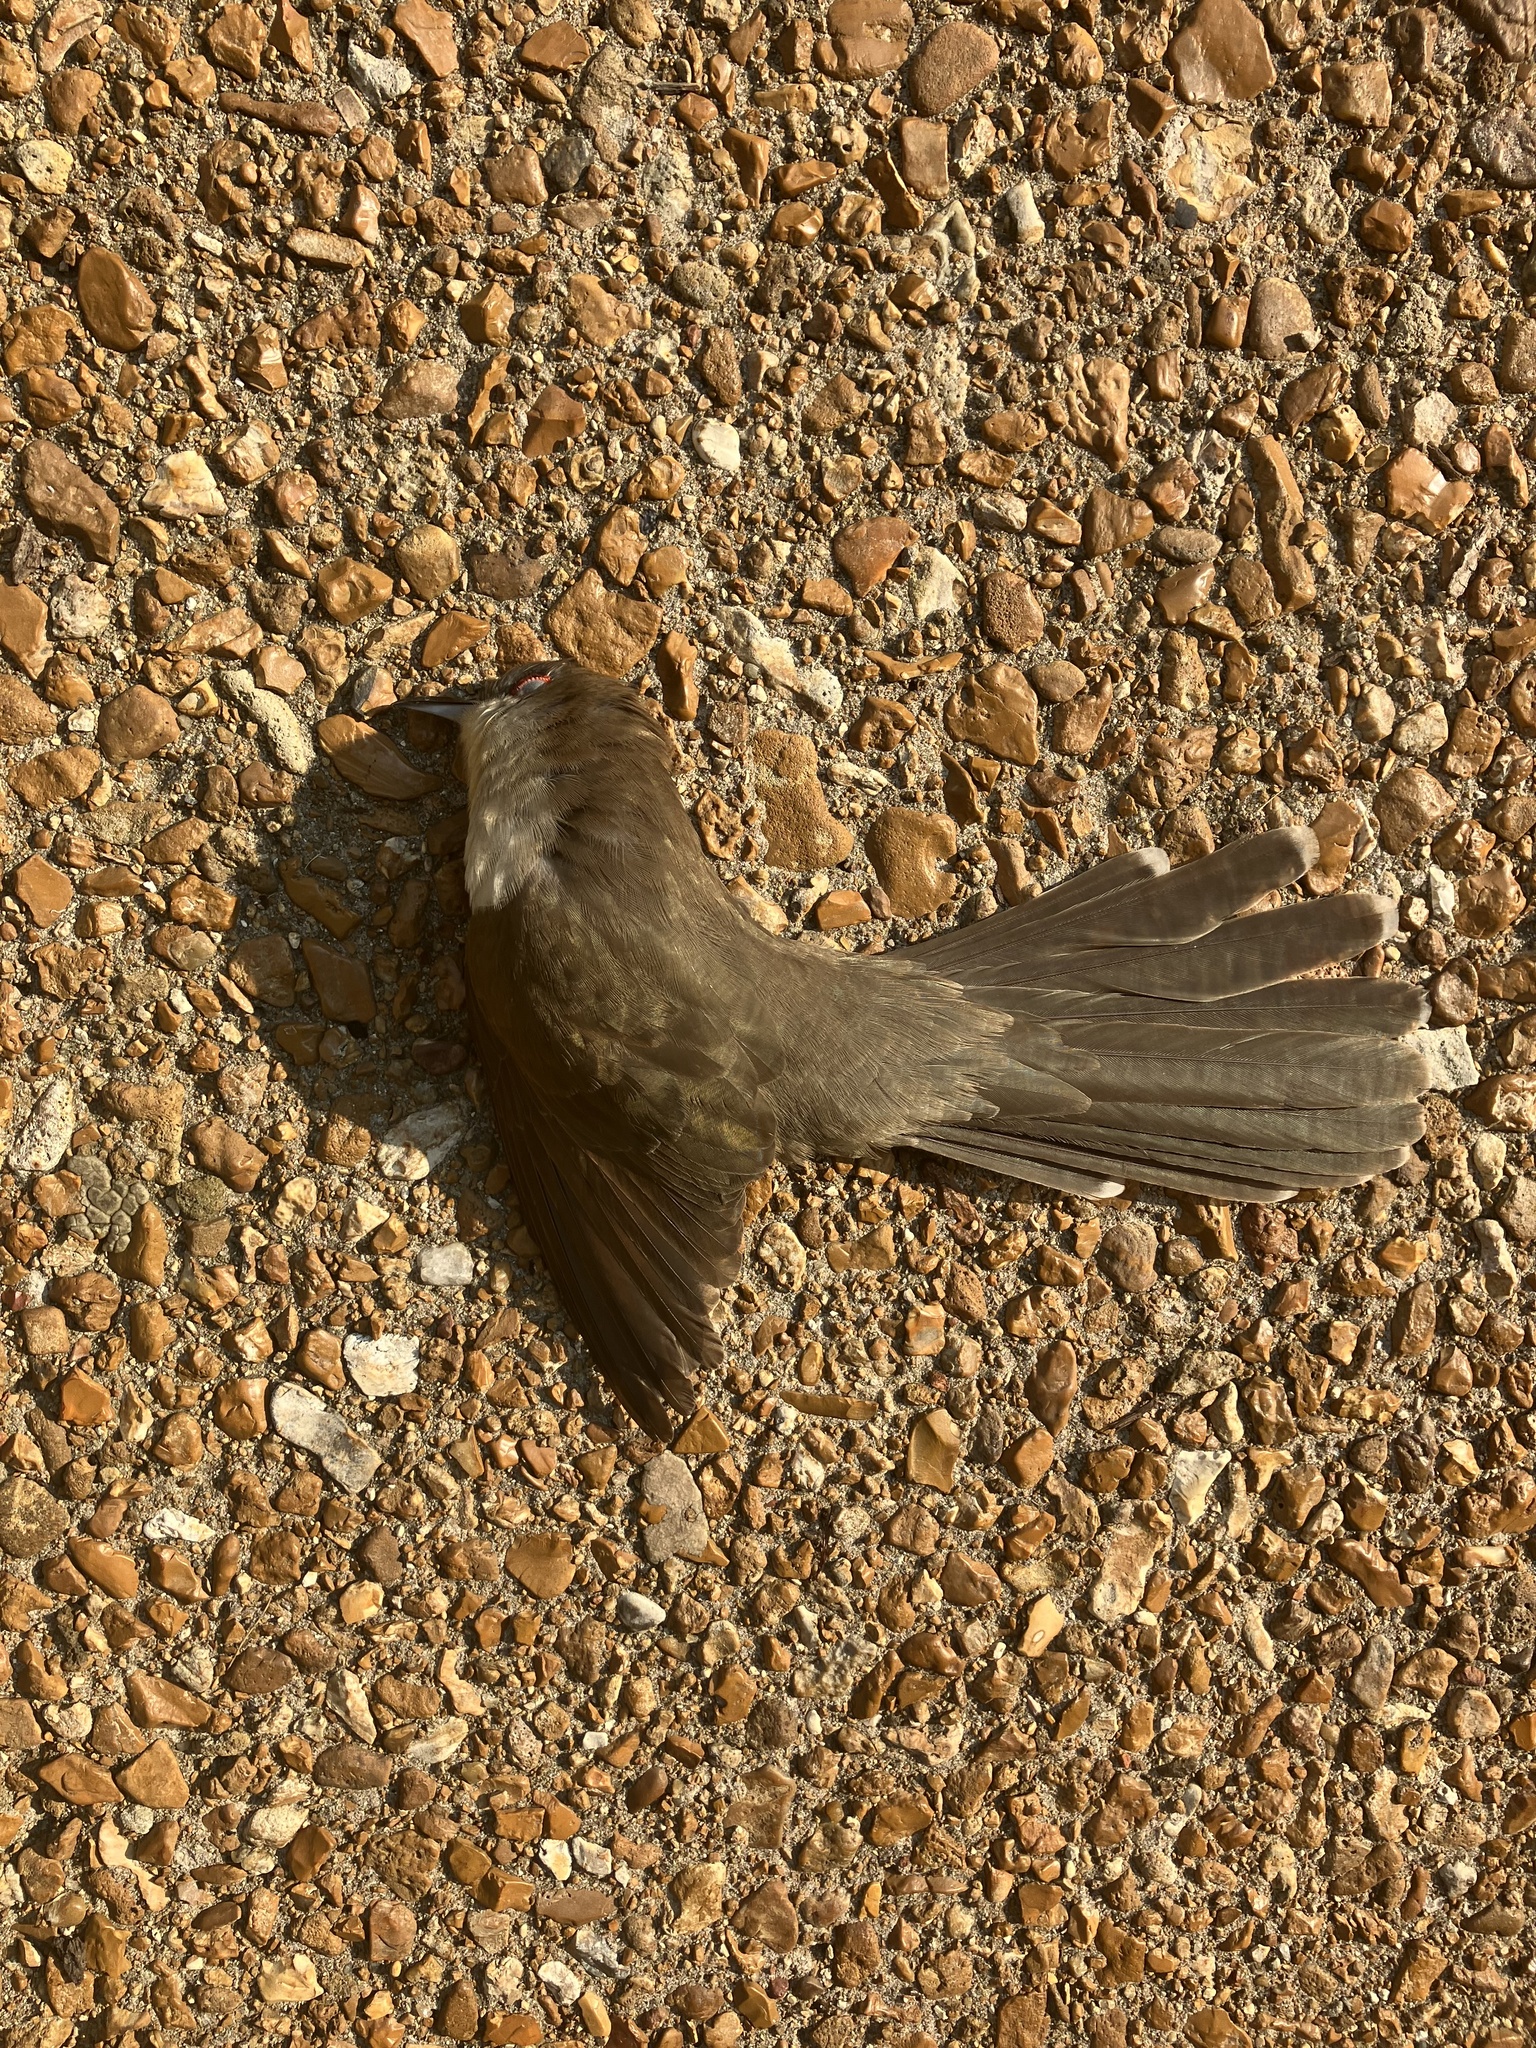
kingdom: Animalia
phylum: Chordata
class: Aves
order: Cuculiformes
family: Cuculidae
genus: Coccyzus
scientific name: Coccyzus erythropthalmus
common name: Black-billed cuckoo
